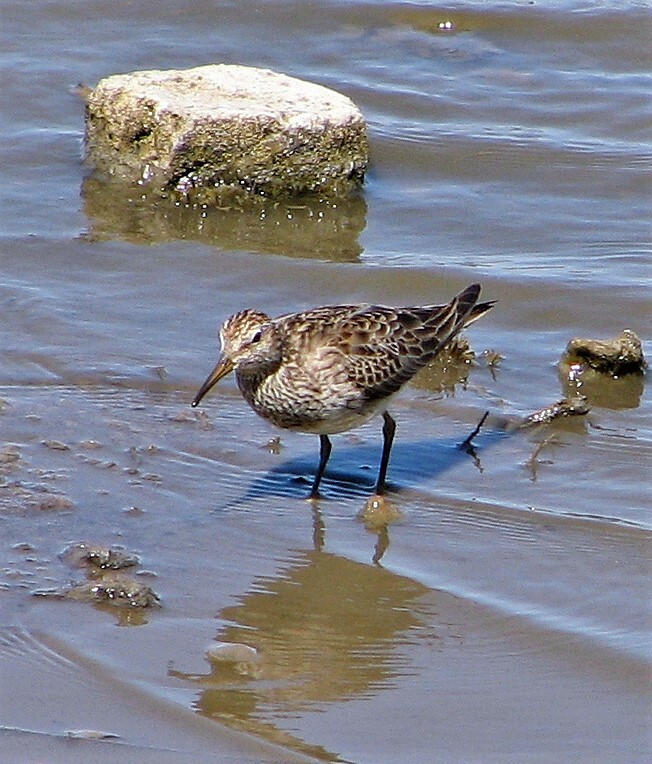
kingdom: Animalia
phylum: Chordata
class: Aves
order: Charadriiformes
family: Scolopacidae
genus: Calidris
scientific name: Calidris melanotos
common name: Pectoral sandpiper
